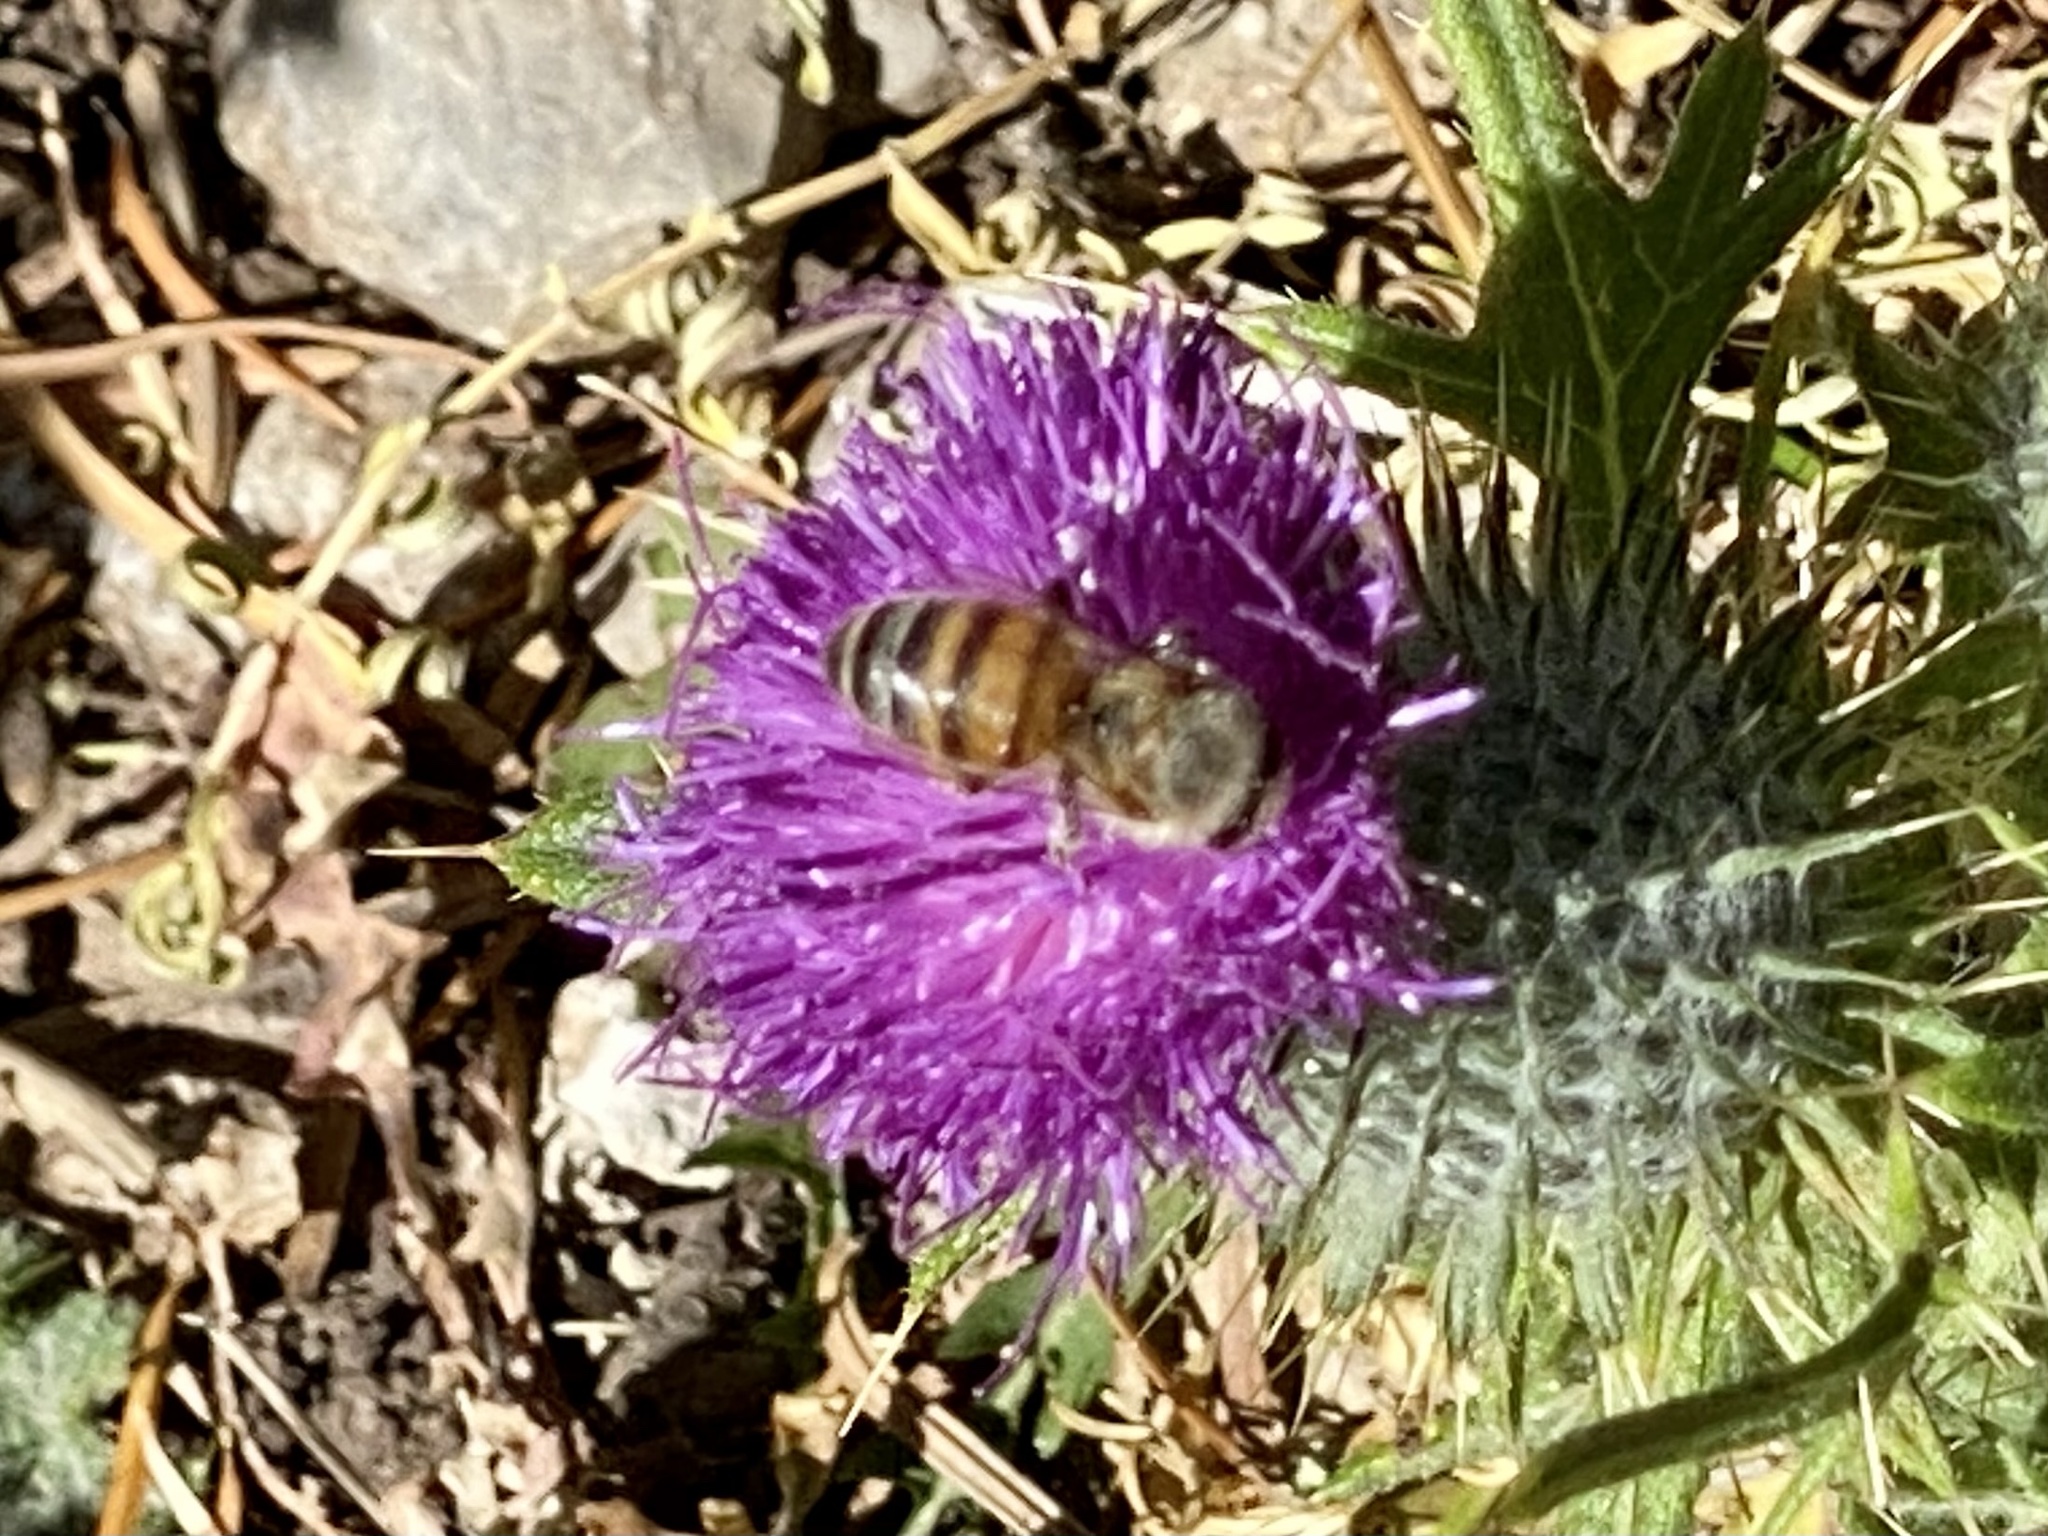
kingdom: Animalia
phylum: Arthropoda
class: Insecta
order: Hymenoptera
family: Apidae
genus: Apis
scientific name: Apis mellifera
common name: Honey bee
